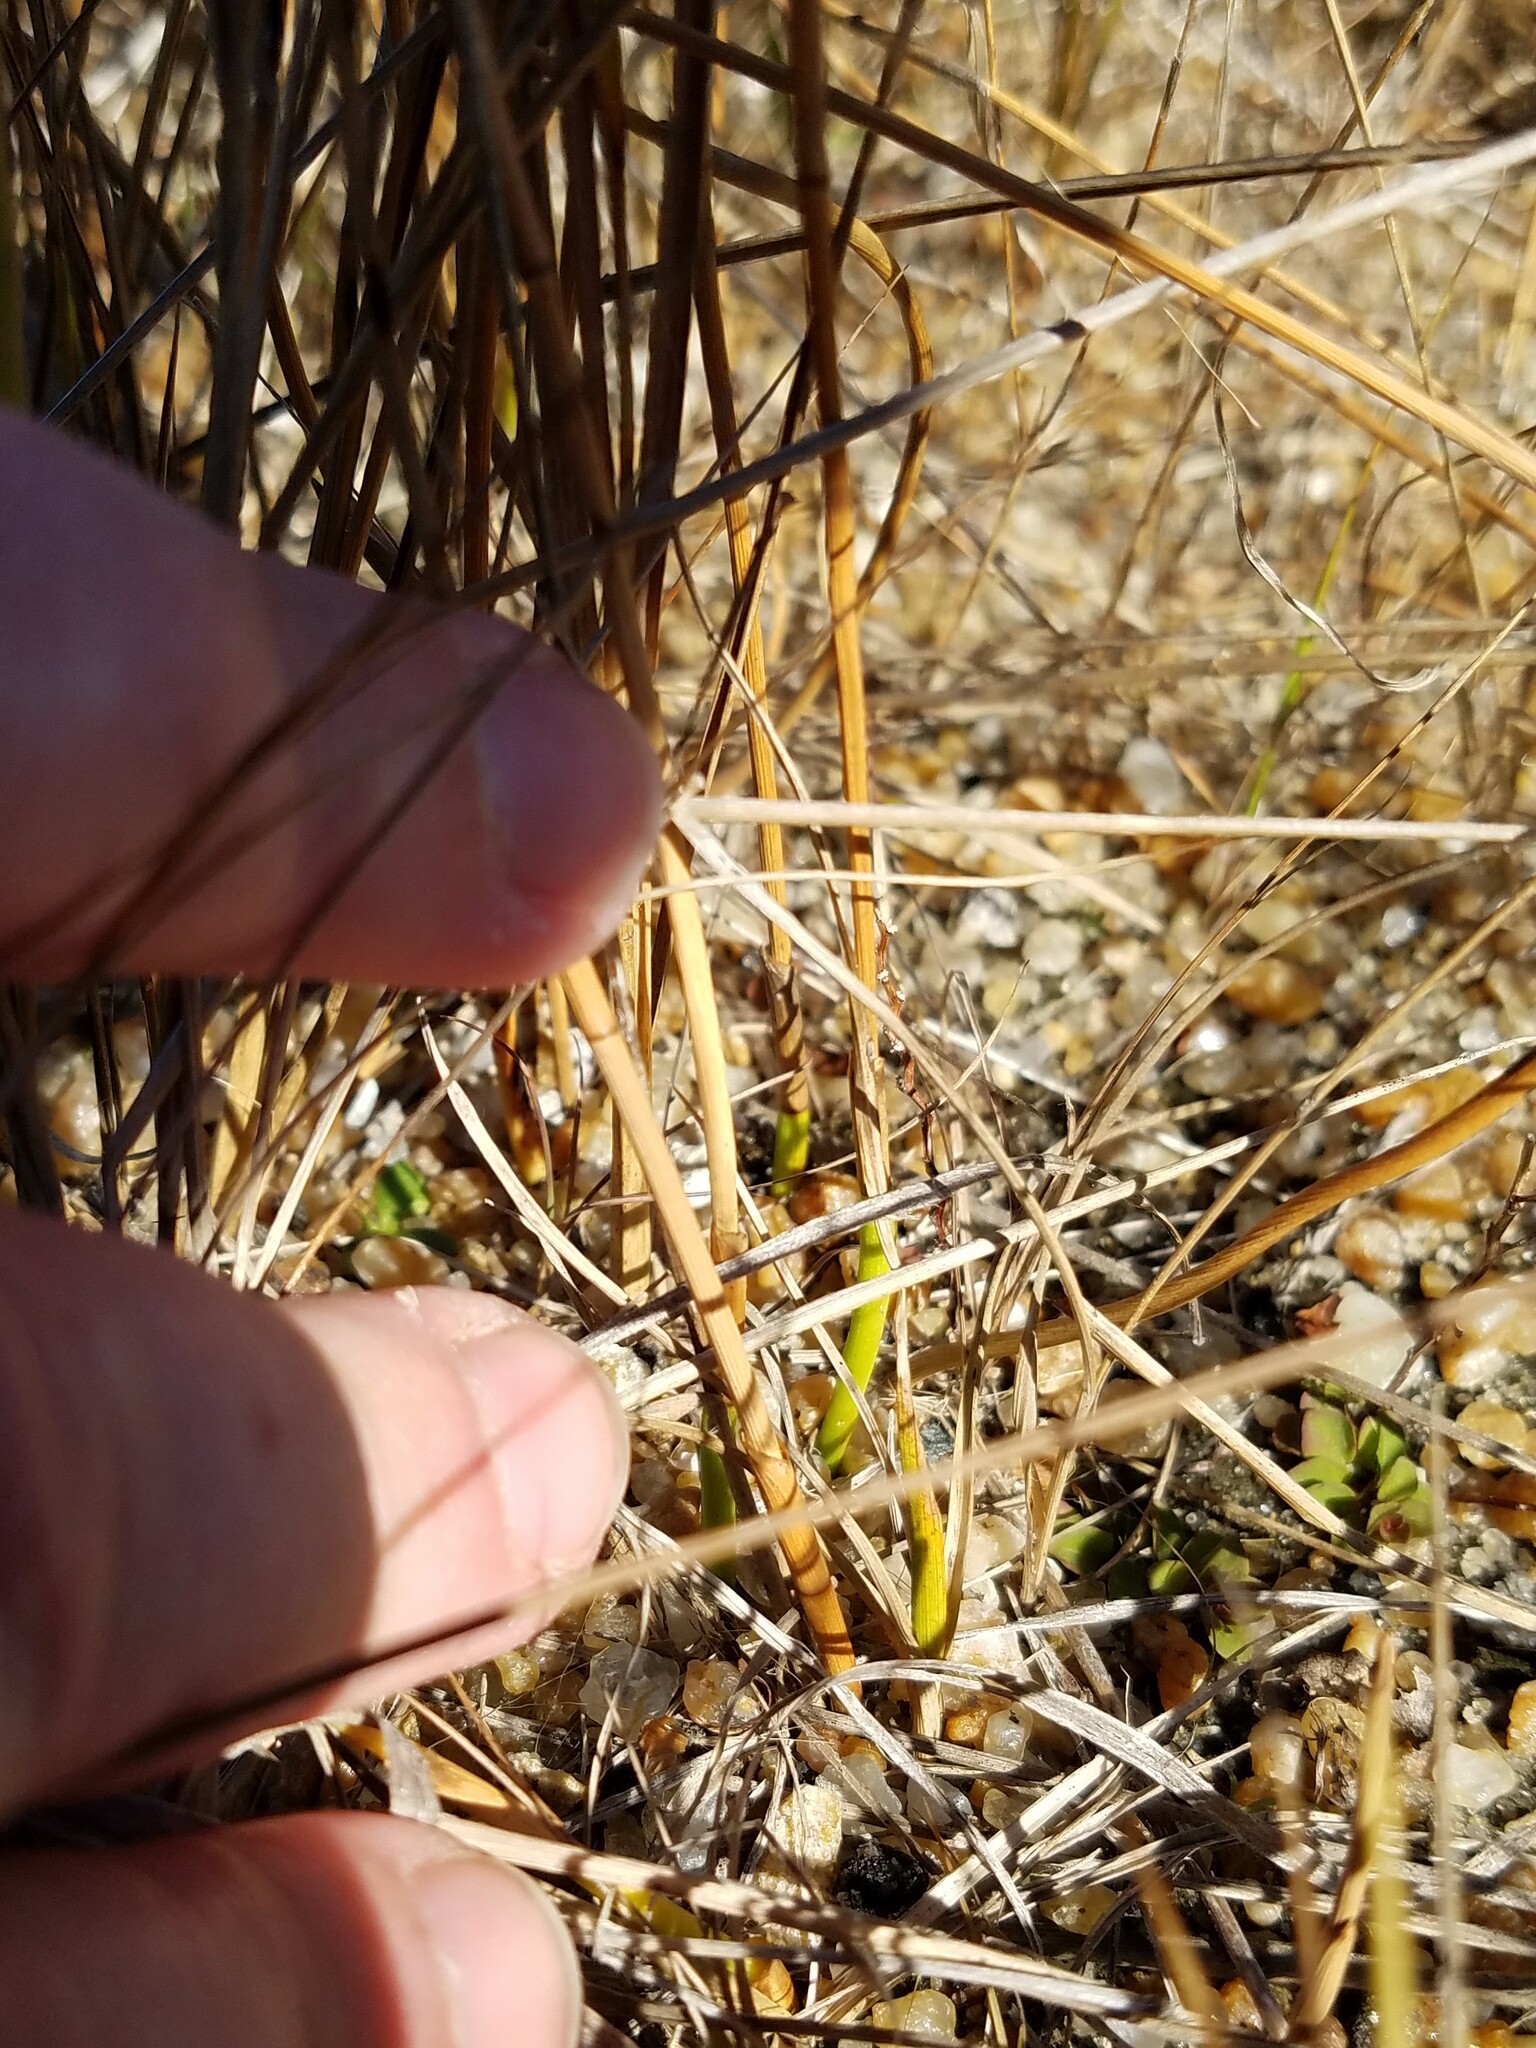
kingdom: Plantae
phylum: Tracheophyta
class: Liliopsida
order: Poales
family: Cyperaceae
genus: Fuirena
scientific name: Fuirena scirpoidea
